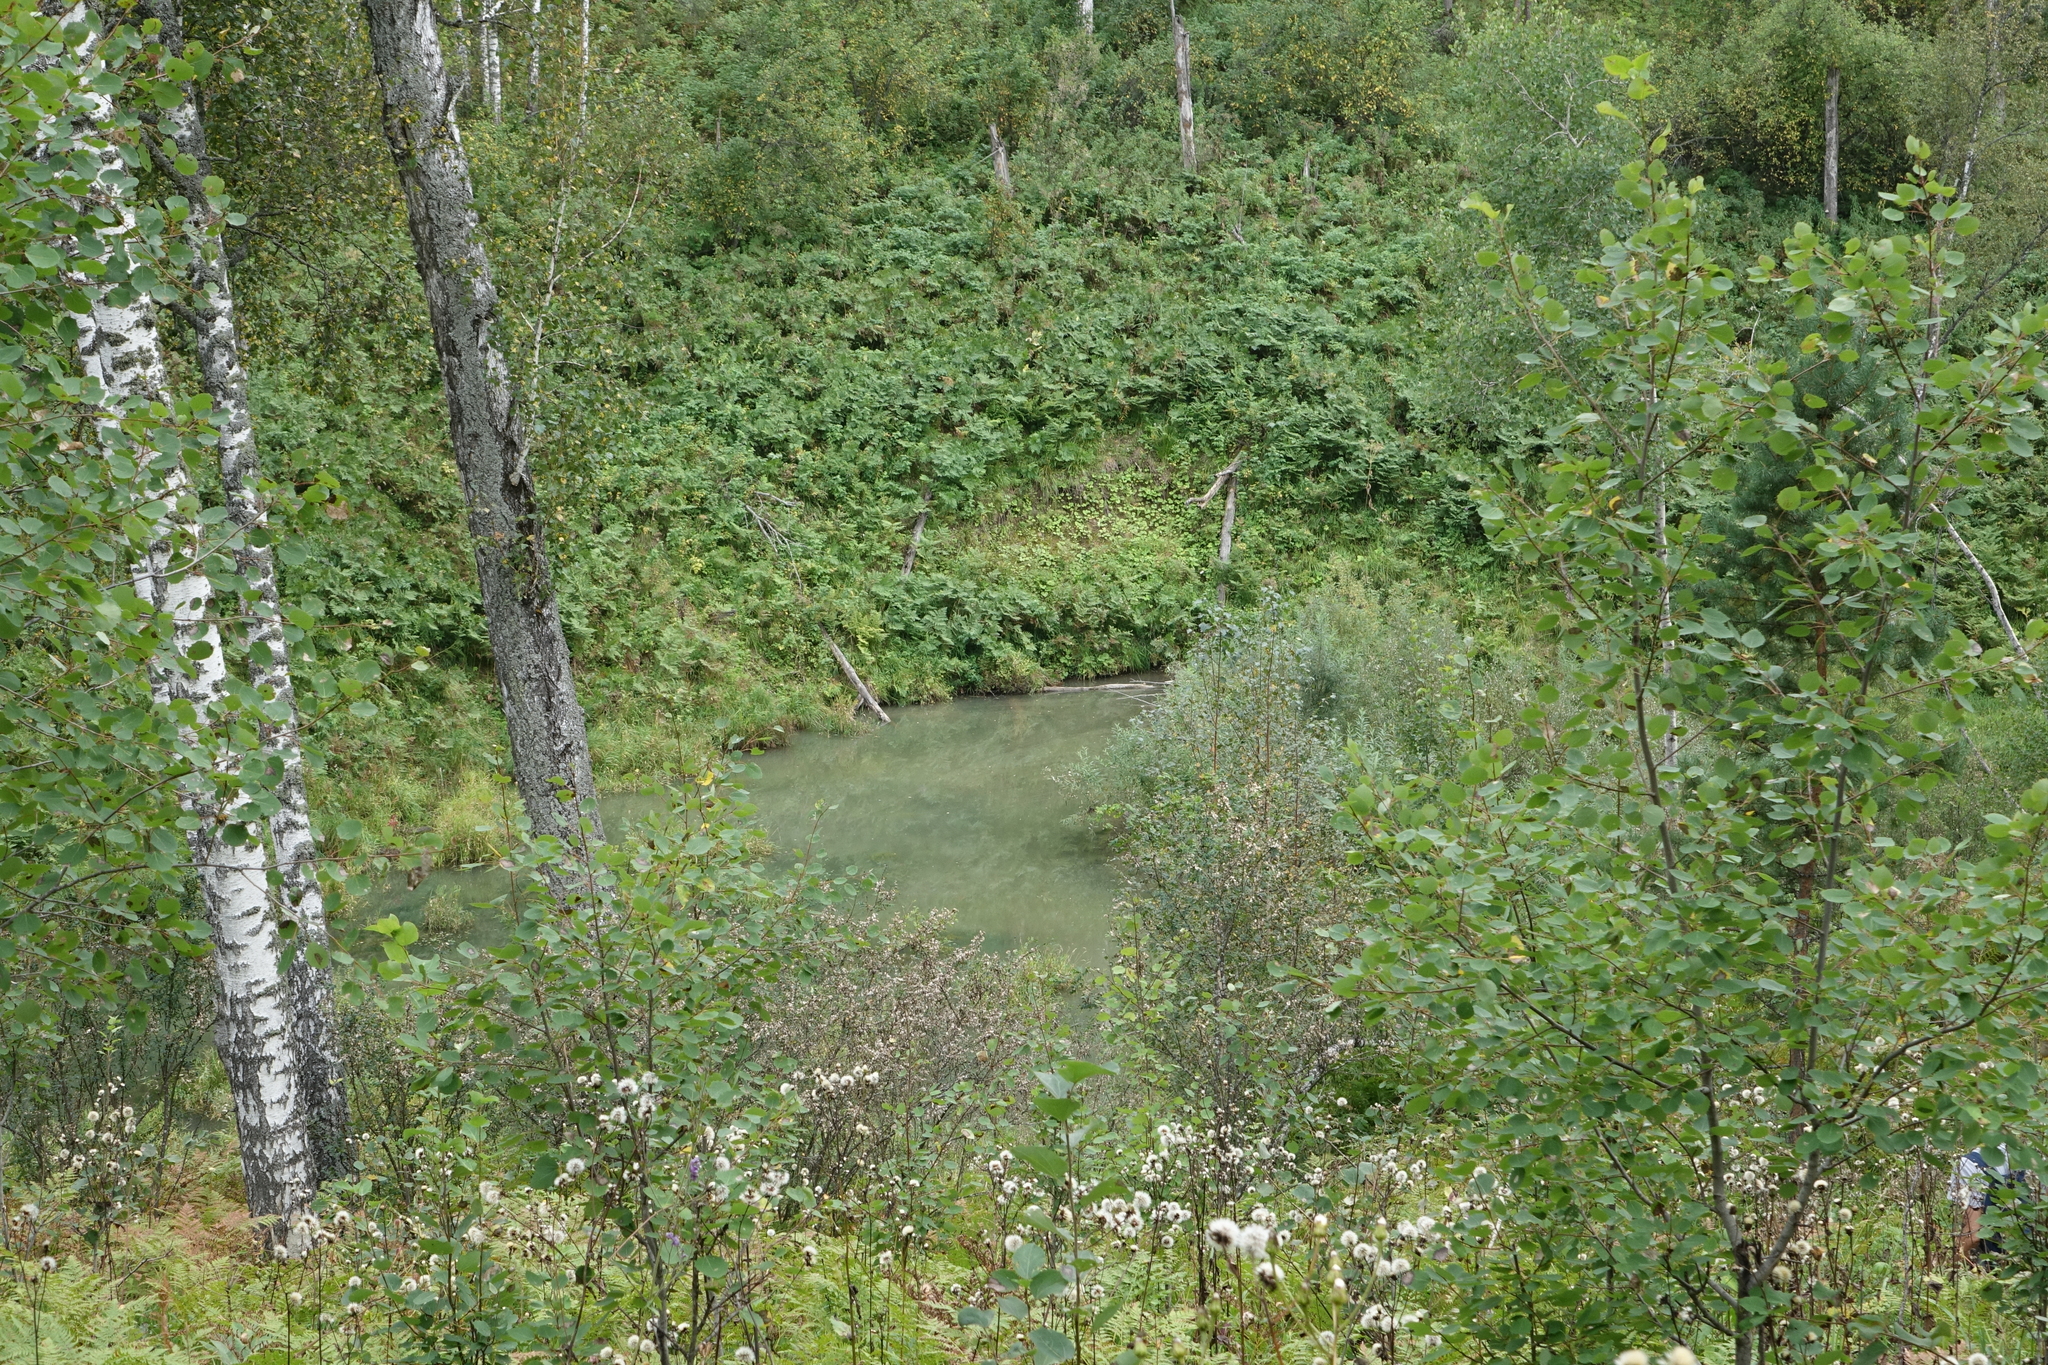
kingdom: Plantae
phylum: Tracheophyta
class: Magnoliopsida
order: Malpighiales
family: Salicaceae
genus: Populus
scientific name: Populus tremula
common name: European aspen
